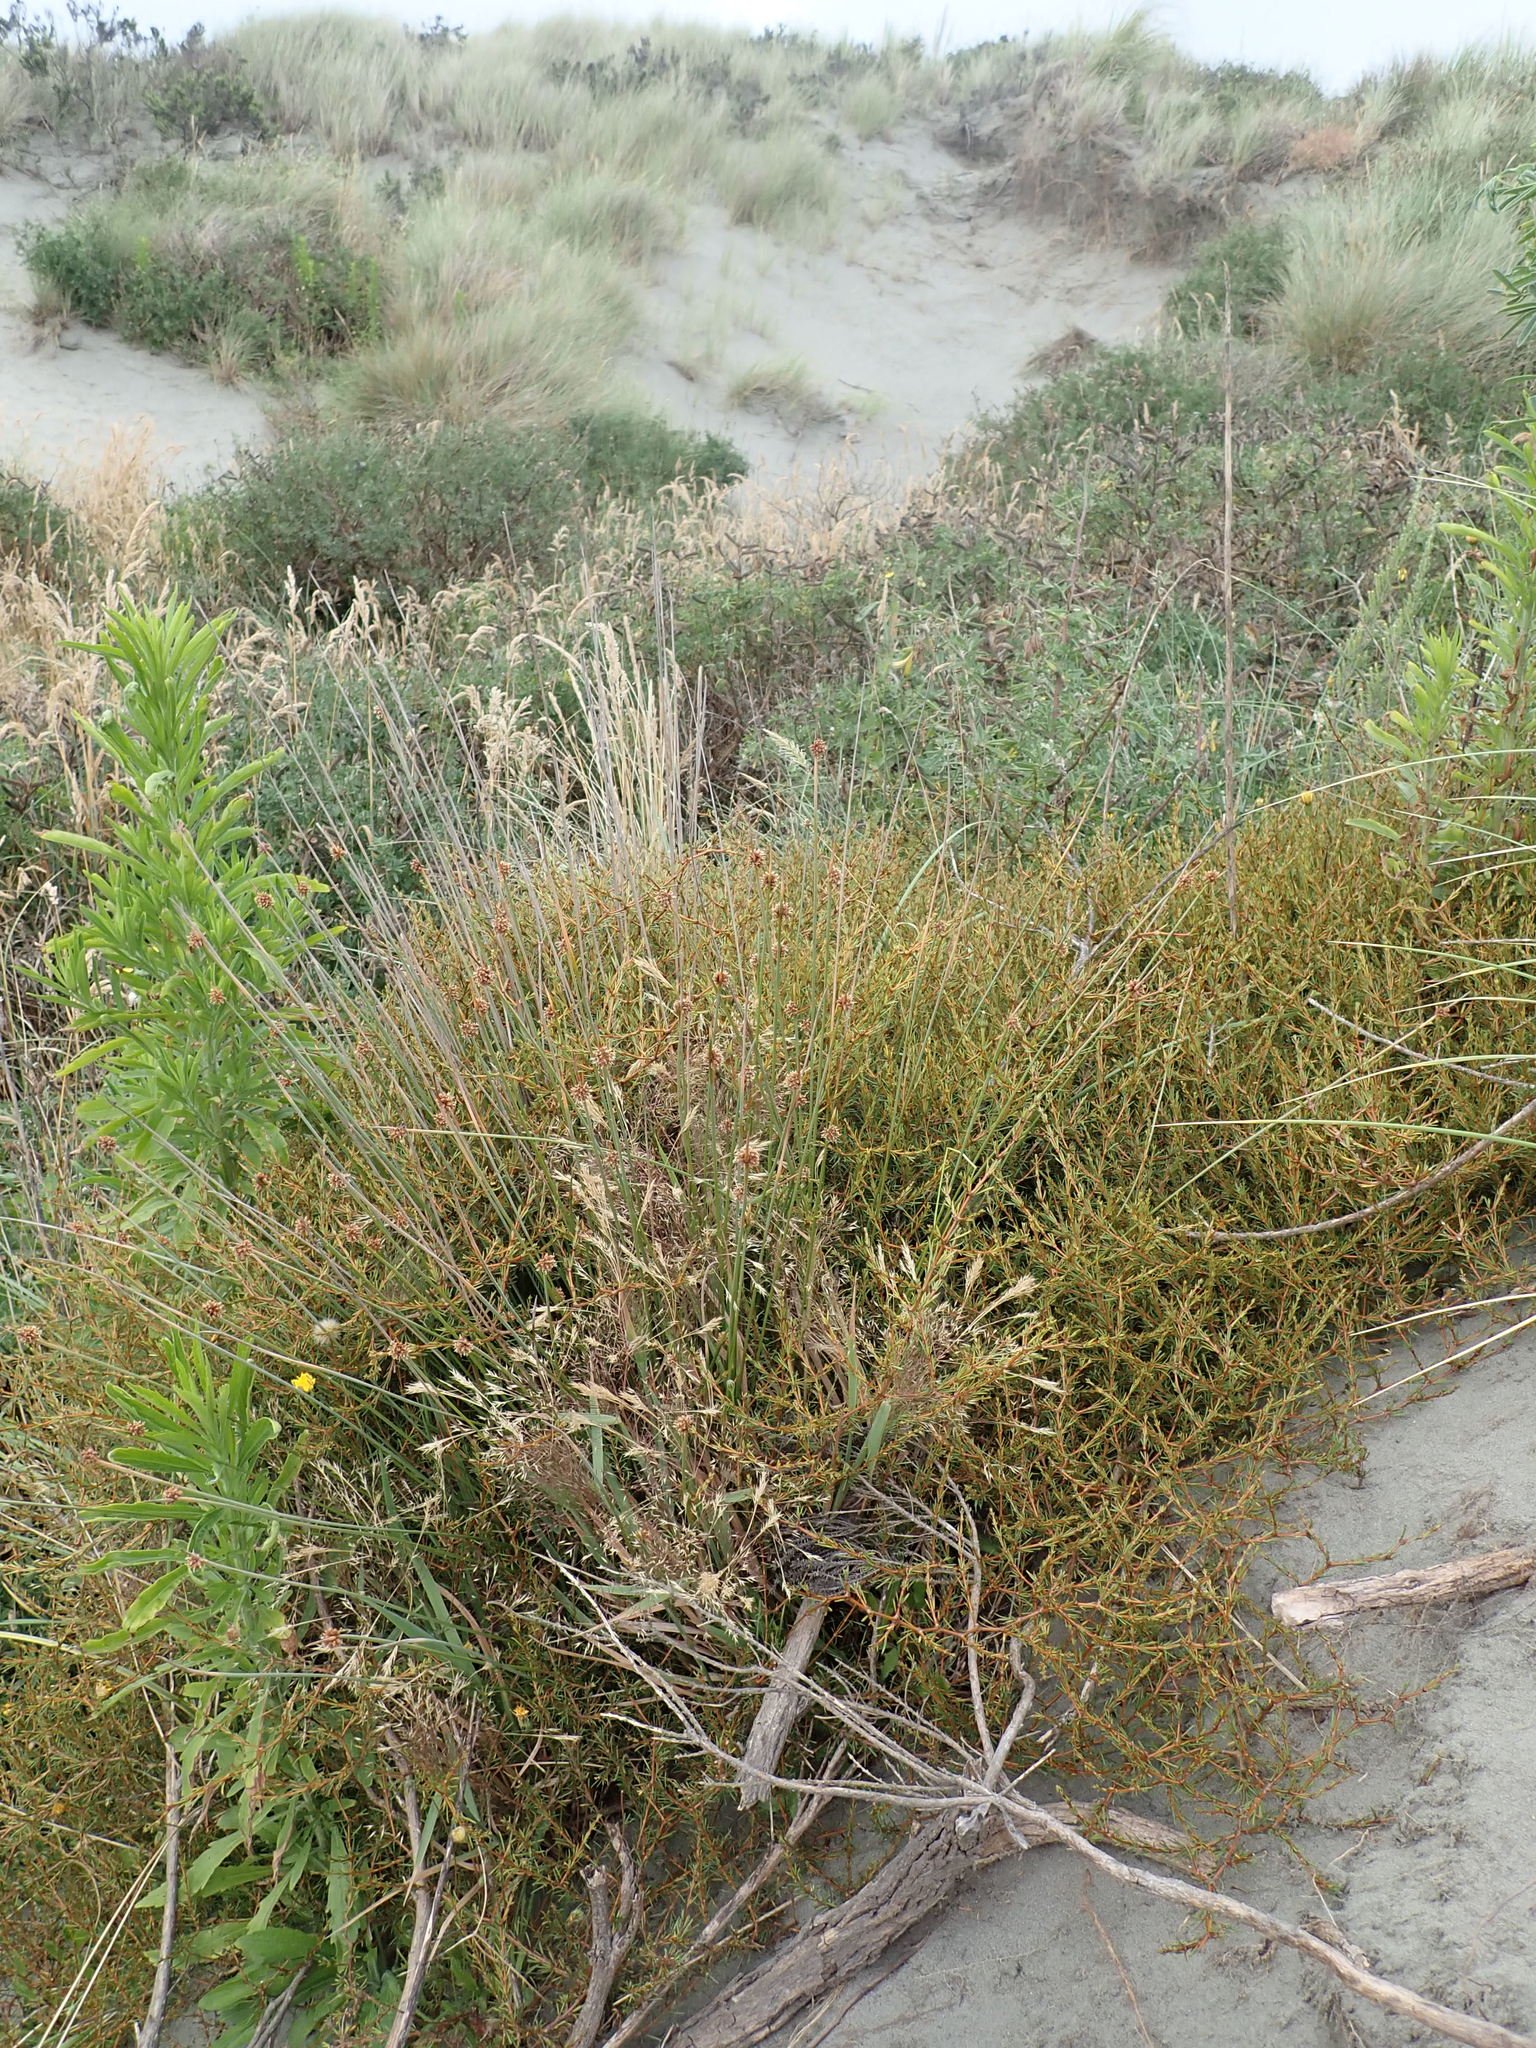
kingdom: Plantae
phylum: Tracheophyta
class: Magnoliopsida
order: Gentianales
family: Rubiaceae
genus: Coprosma
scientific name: Coprosma acerosa
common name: Sand coprosma
